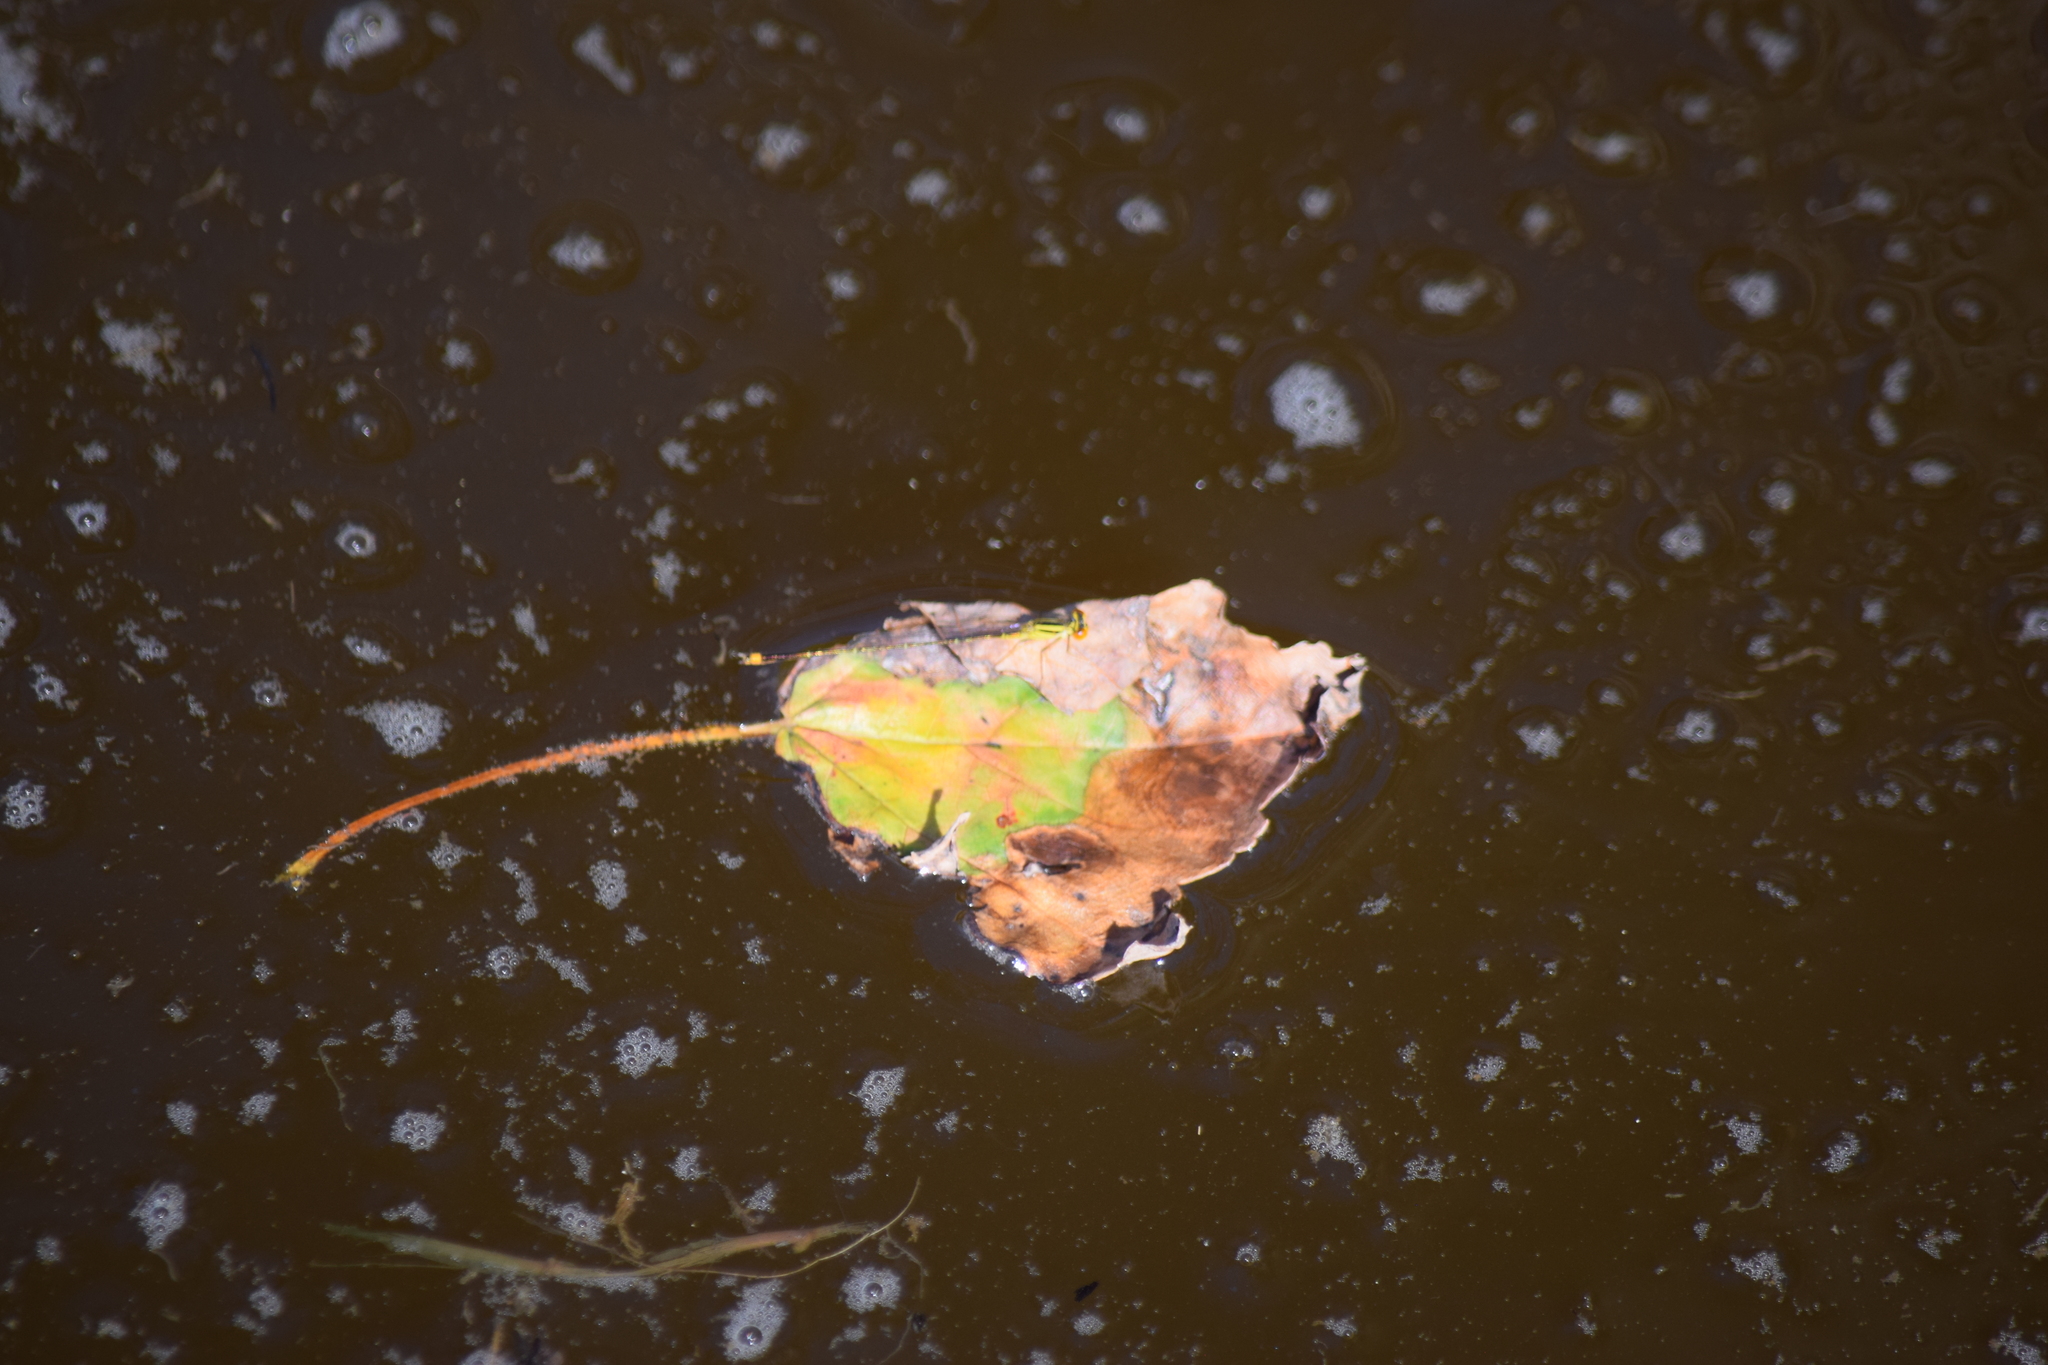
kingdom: Animalia
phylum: Arthropoda
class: Insecta
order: Odonata
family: Coenagrionidae
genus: Enallagma
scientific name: Enallagma signatum
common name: Orange bluet
